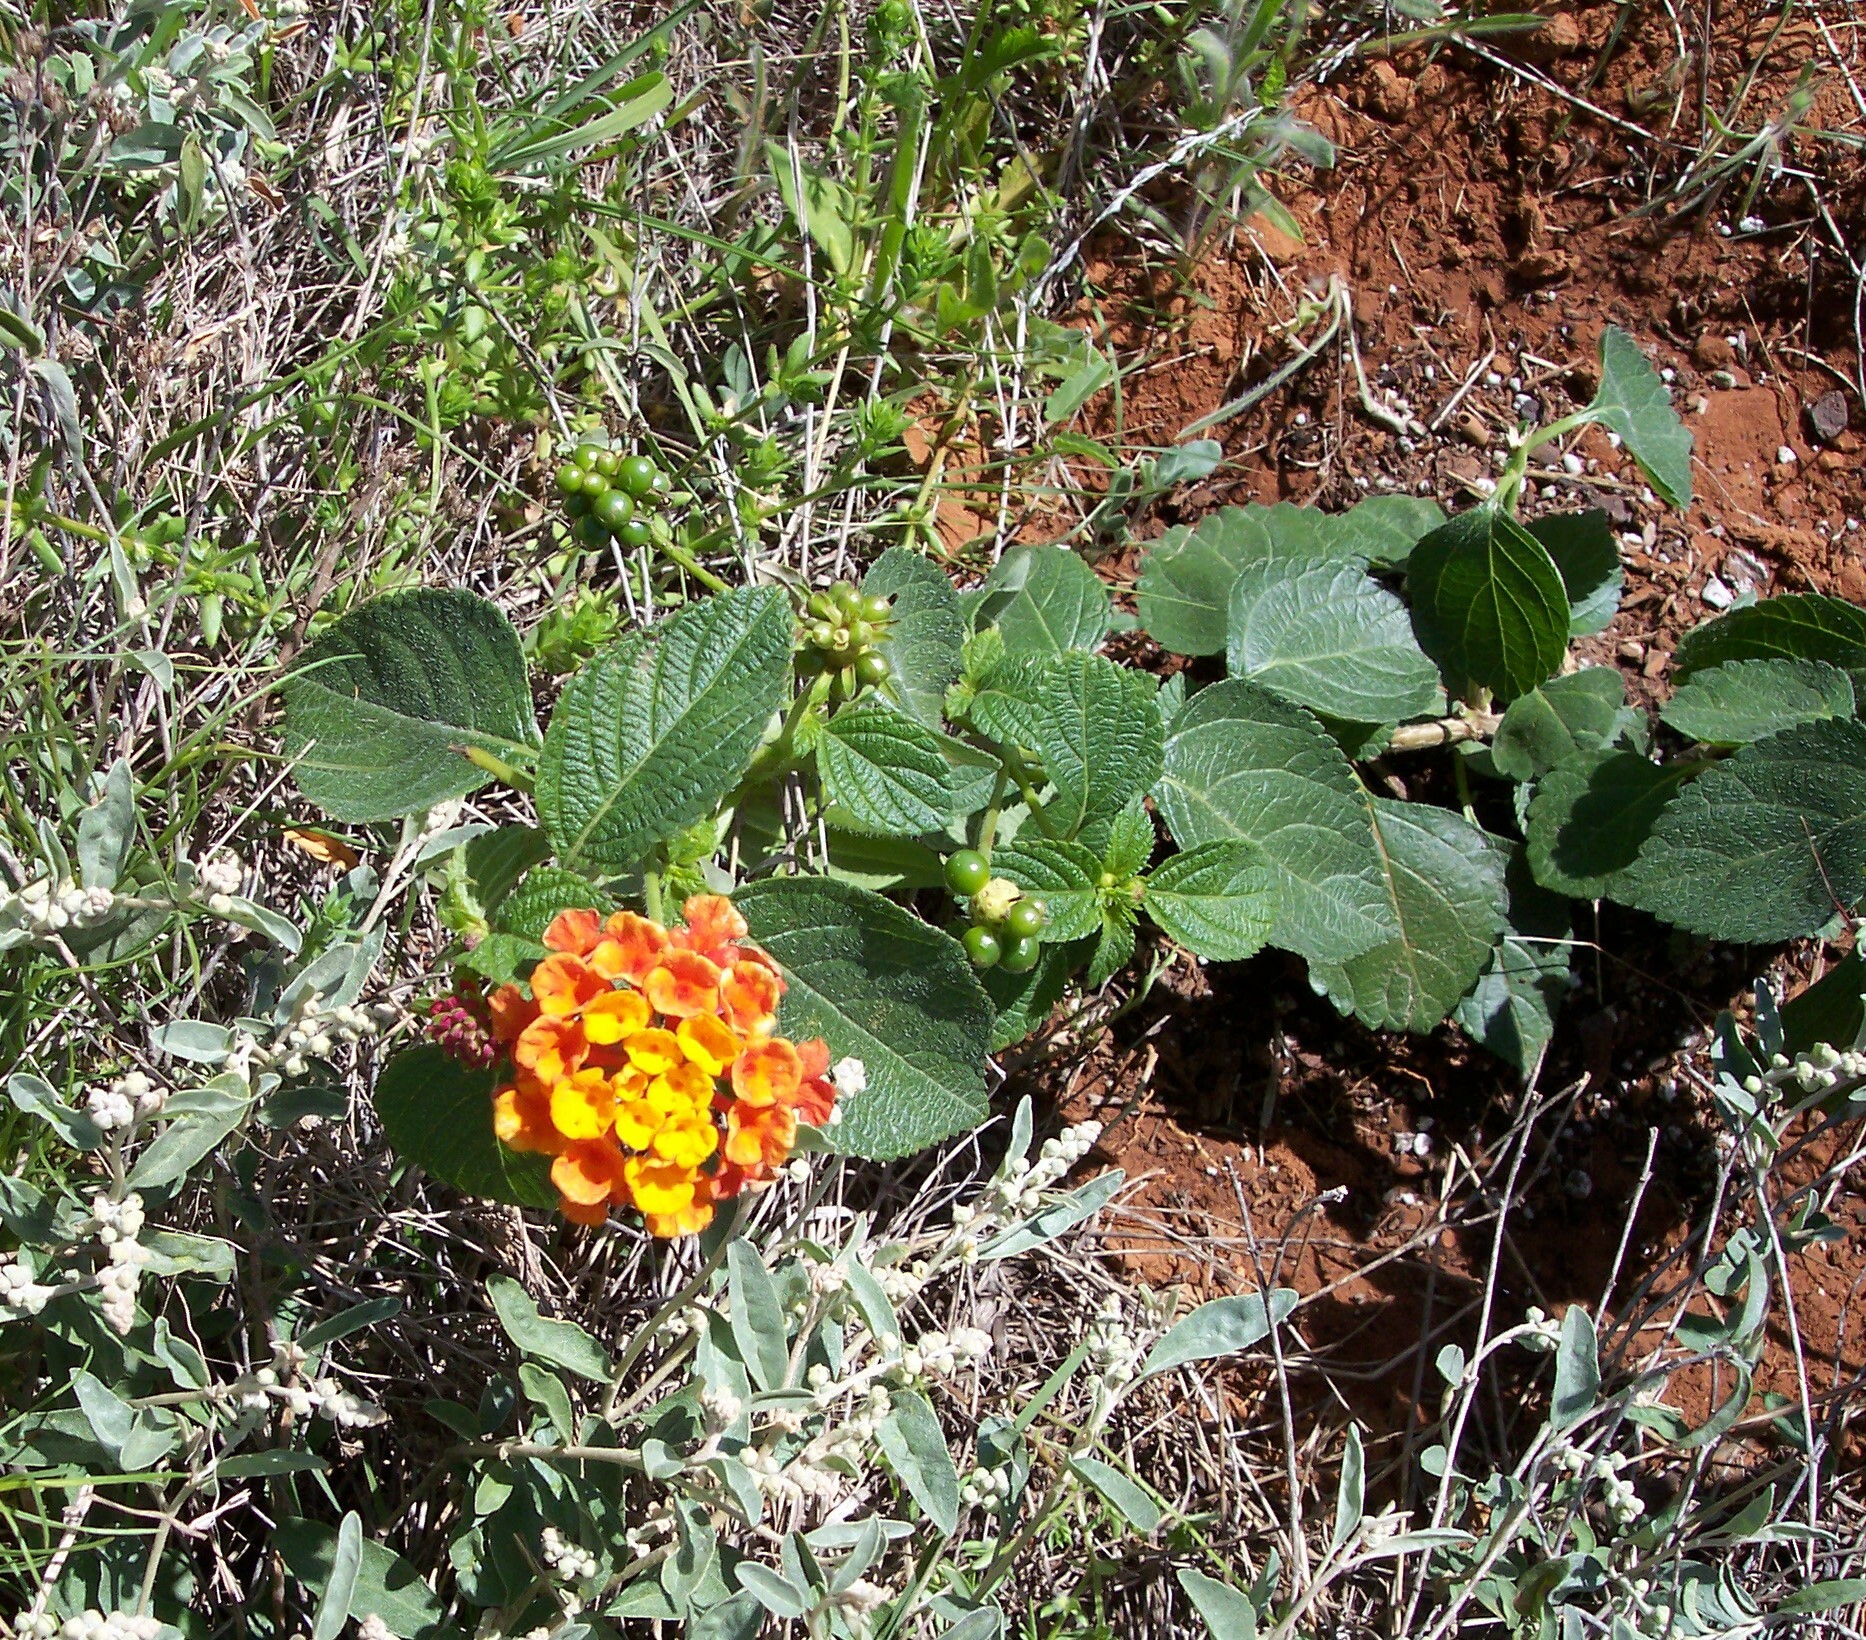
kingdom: Plantae
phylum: Tracheophyta
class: Magnoliopsida
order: Lamiales
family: Verbenaceae
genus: Lantana
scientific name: Lantana urticoides
